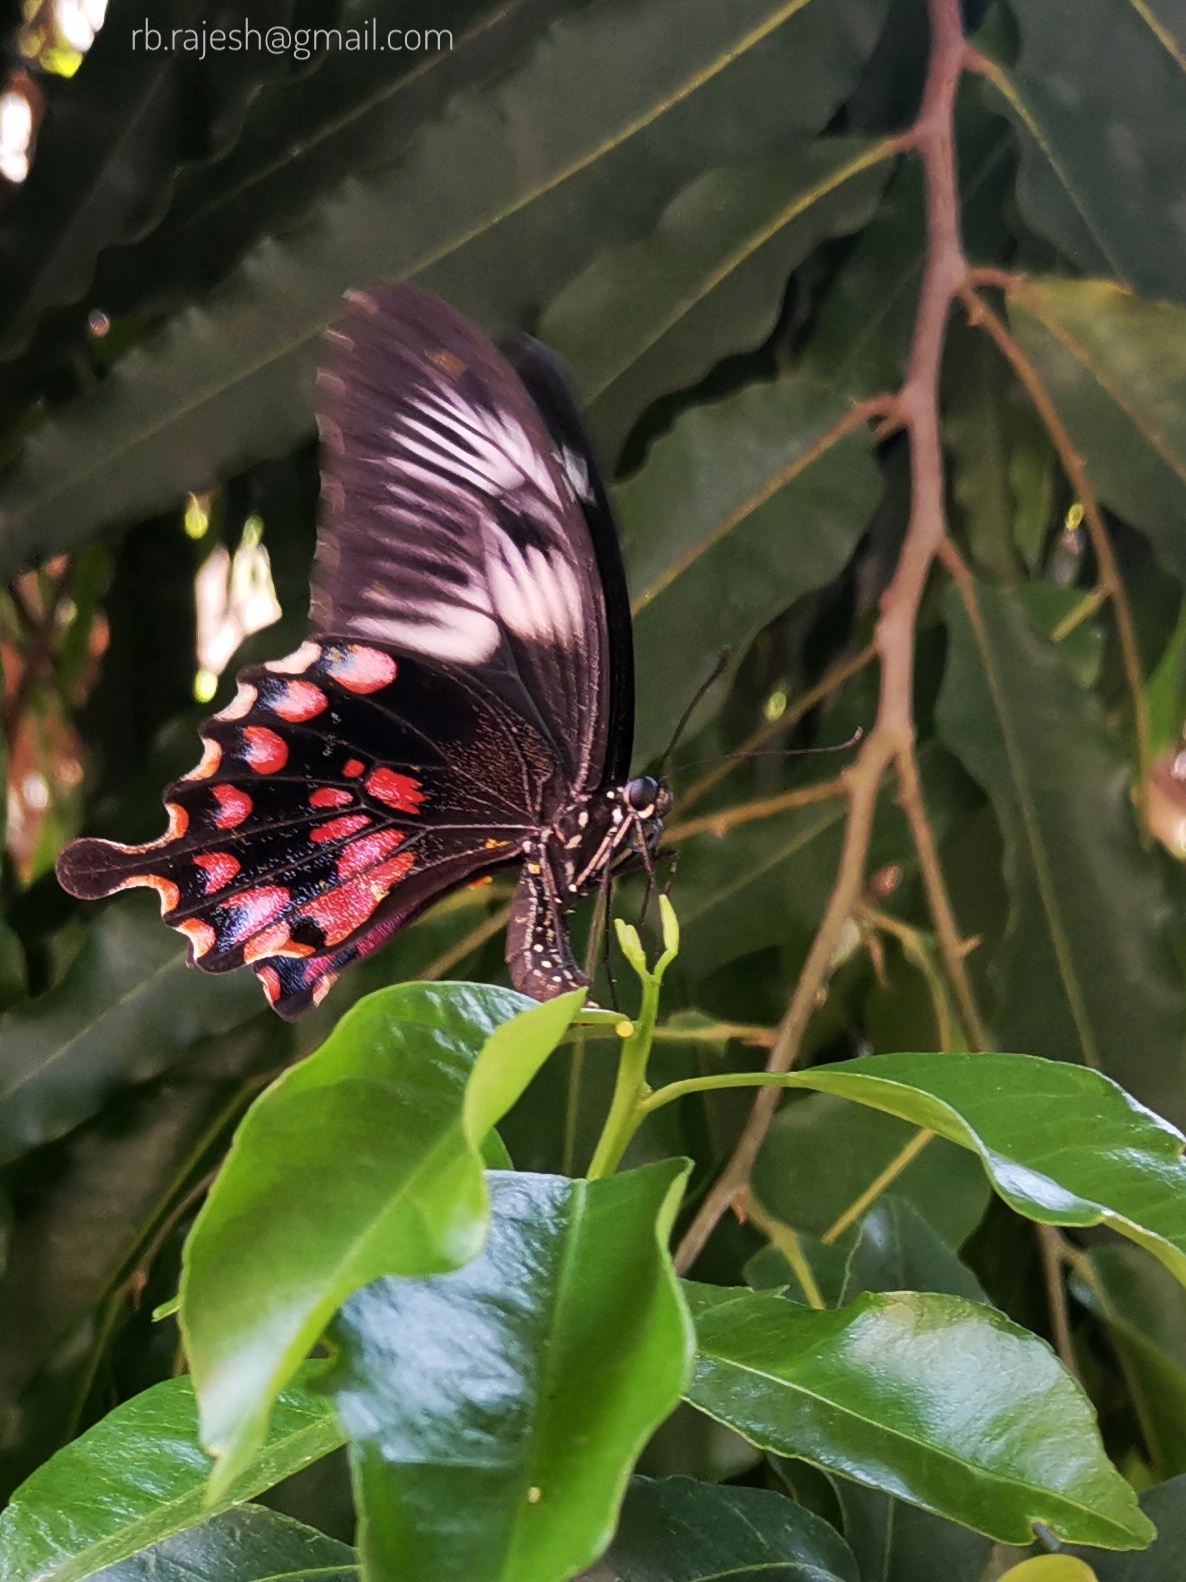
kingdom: Animalia
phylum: Arthropoda
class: Insecta
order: Lepidoptera
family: Papilionidae
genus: Papilio
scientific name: Papilio polytes
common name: Common mormon
